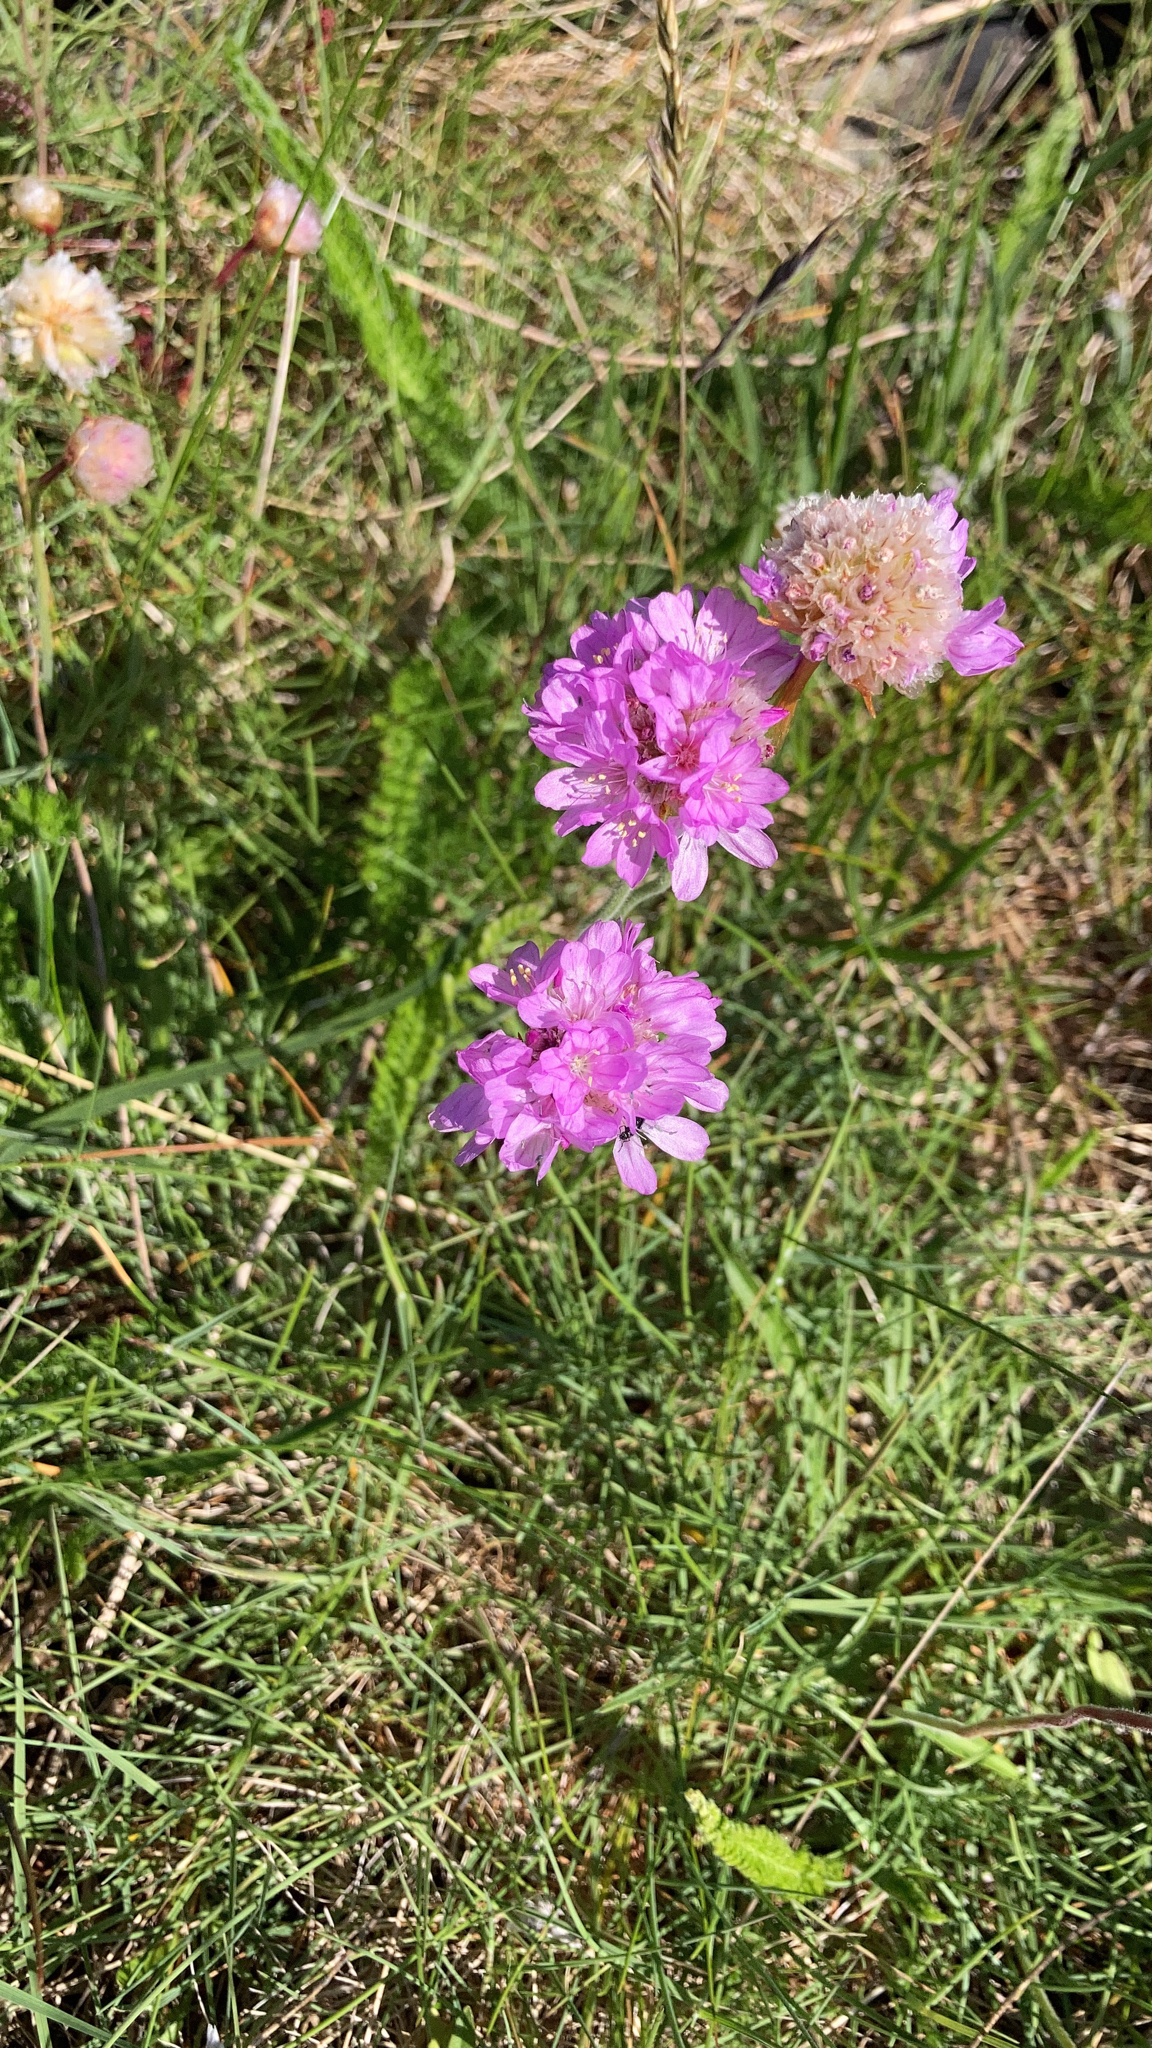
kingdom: Plantae
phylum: Tracheophyta
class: Magnoliopsida
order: Caryophyllales
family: Plumbaginaceae
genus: Armeria
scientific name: Armeria maritima
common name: Thrift
